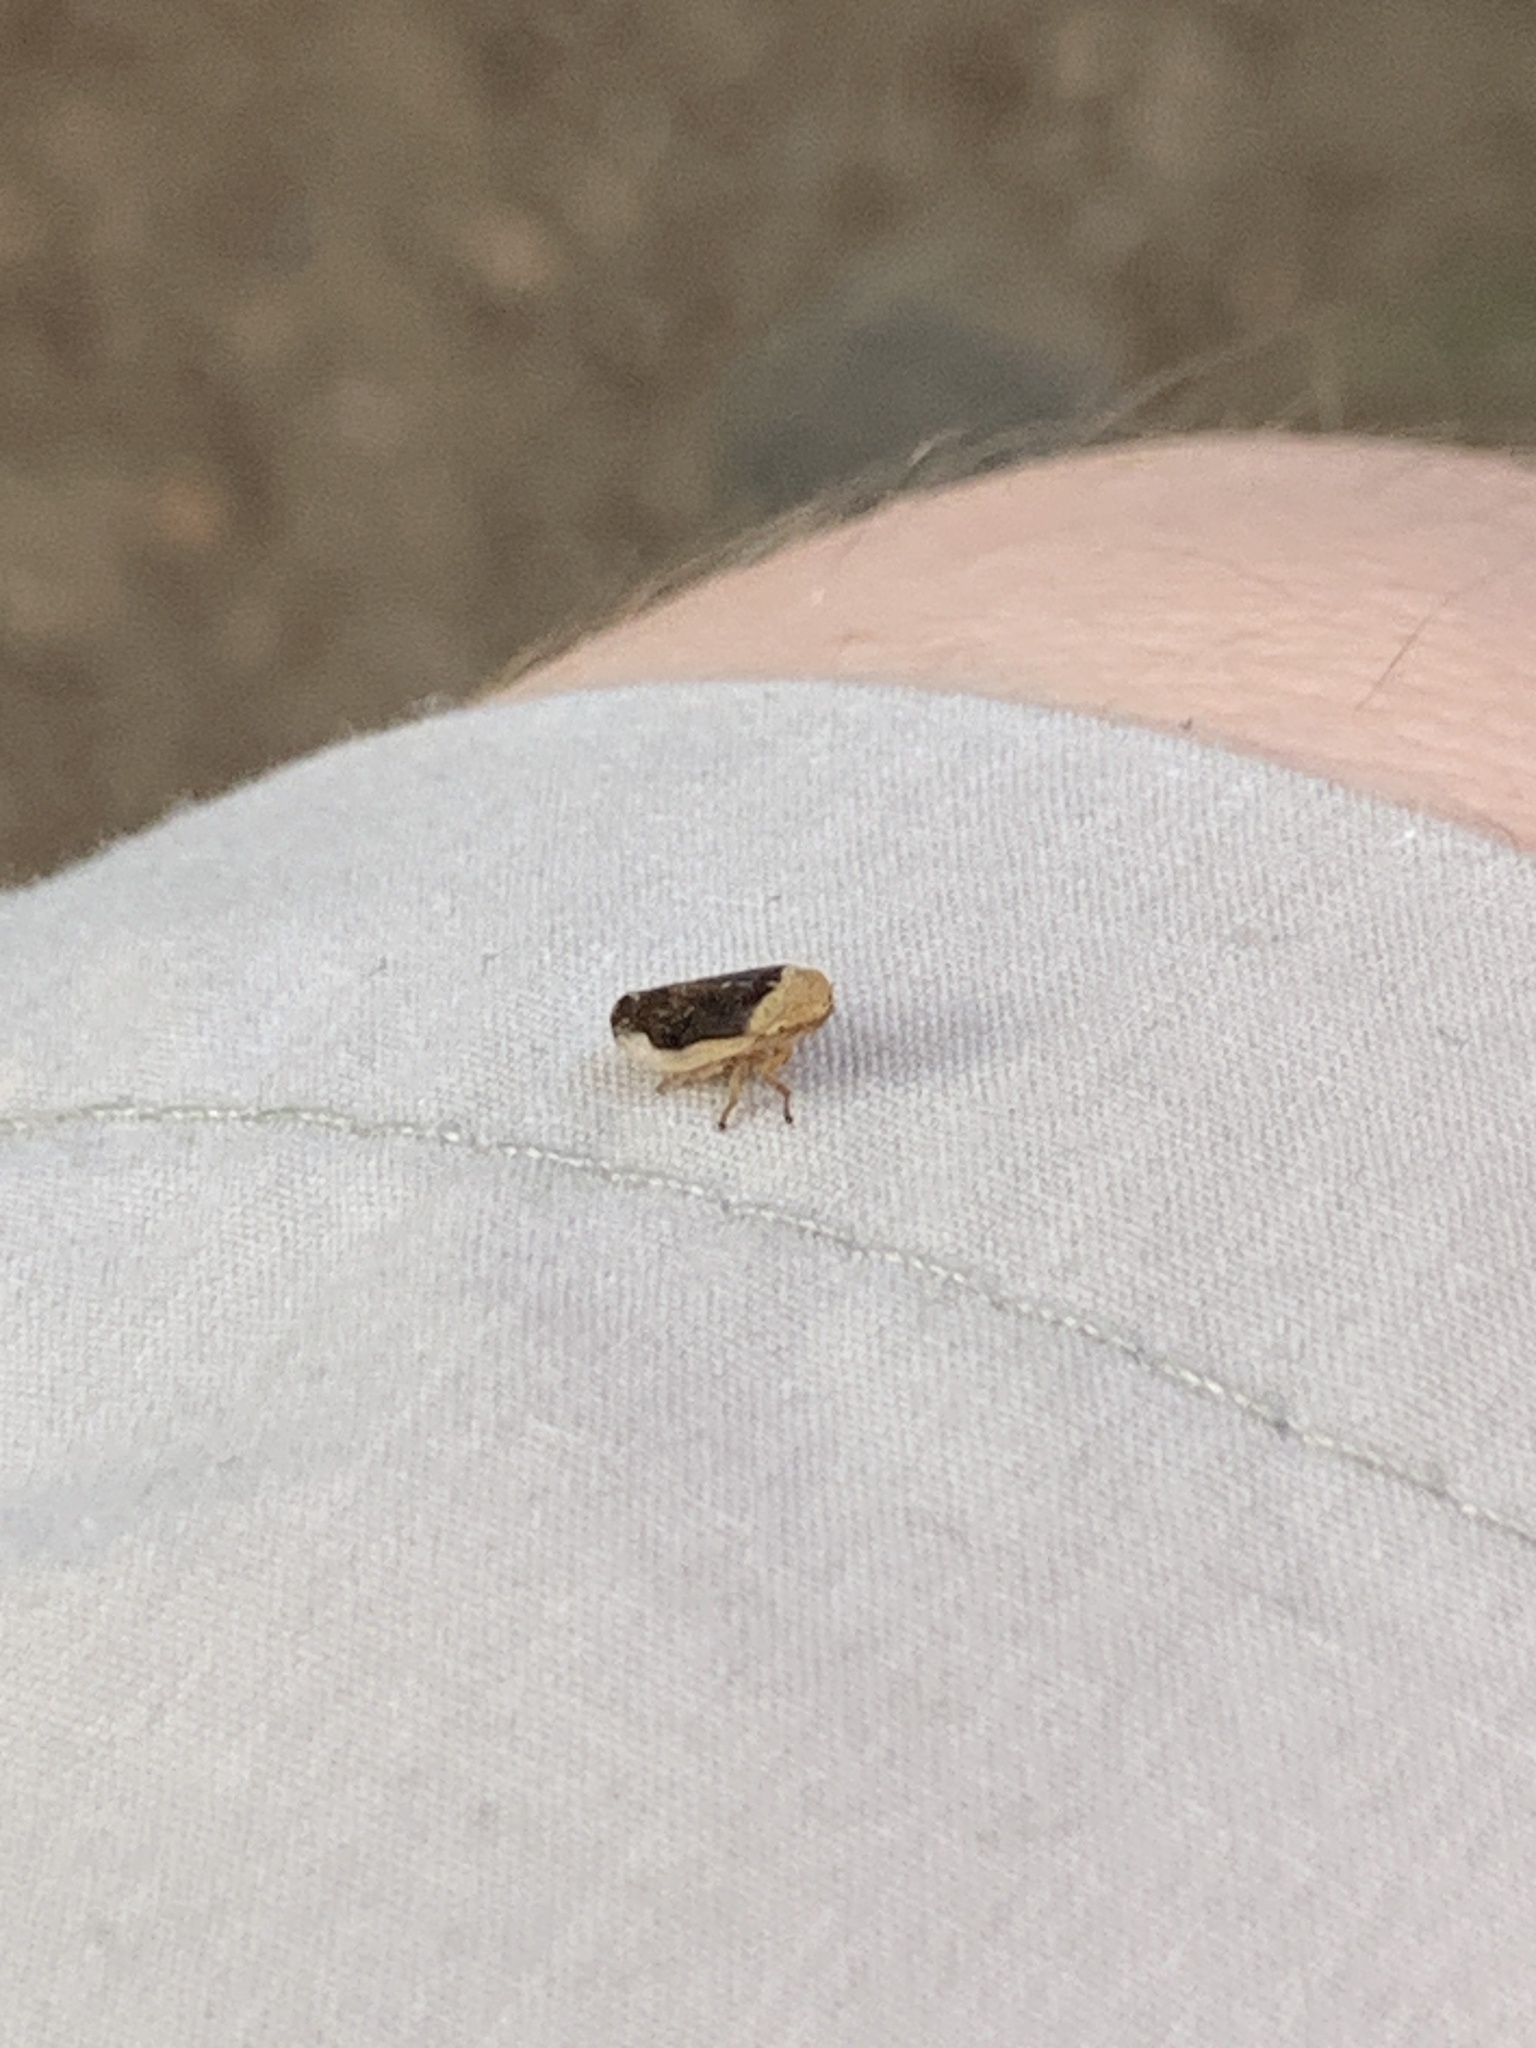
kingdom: Animalia
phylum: Arthropoda
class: Insecta
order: Hemiptera
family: Aphrophoridae
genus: Philaenus
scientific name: Philaenus spumarius
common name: Meadow spittlebug
